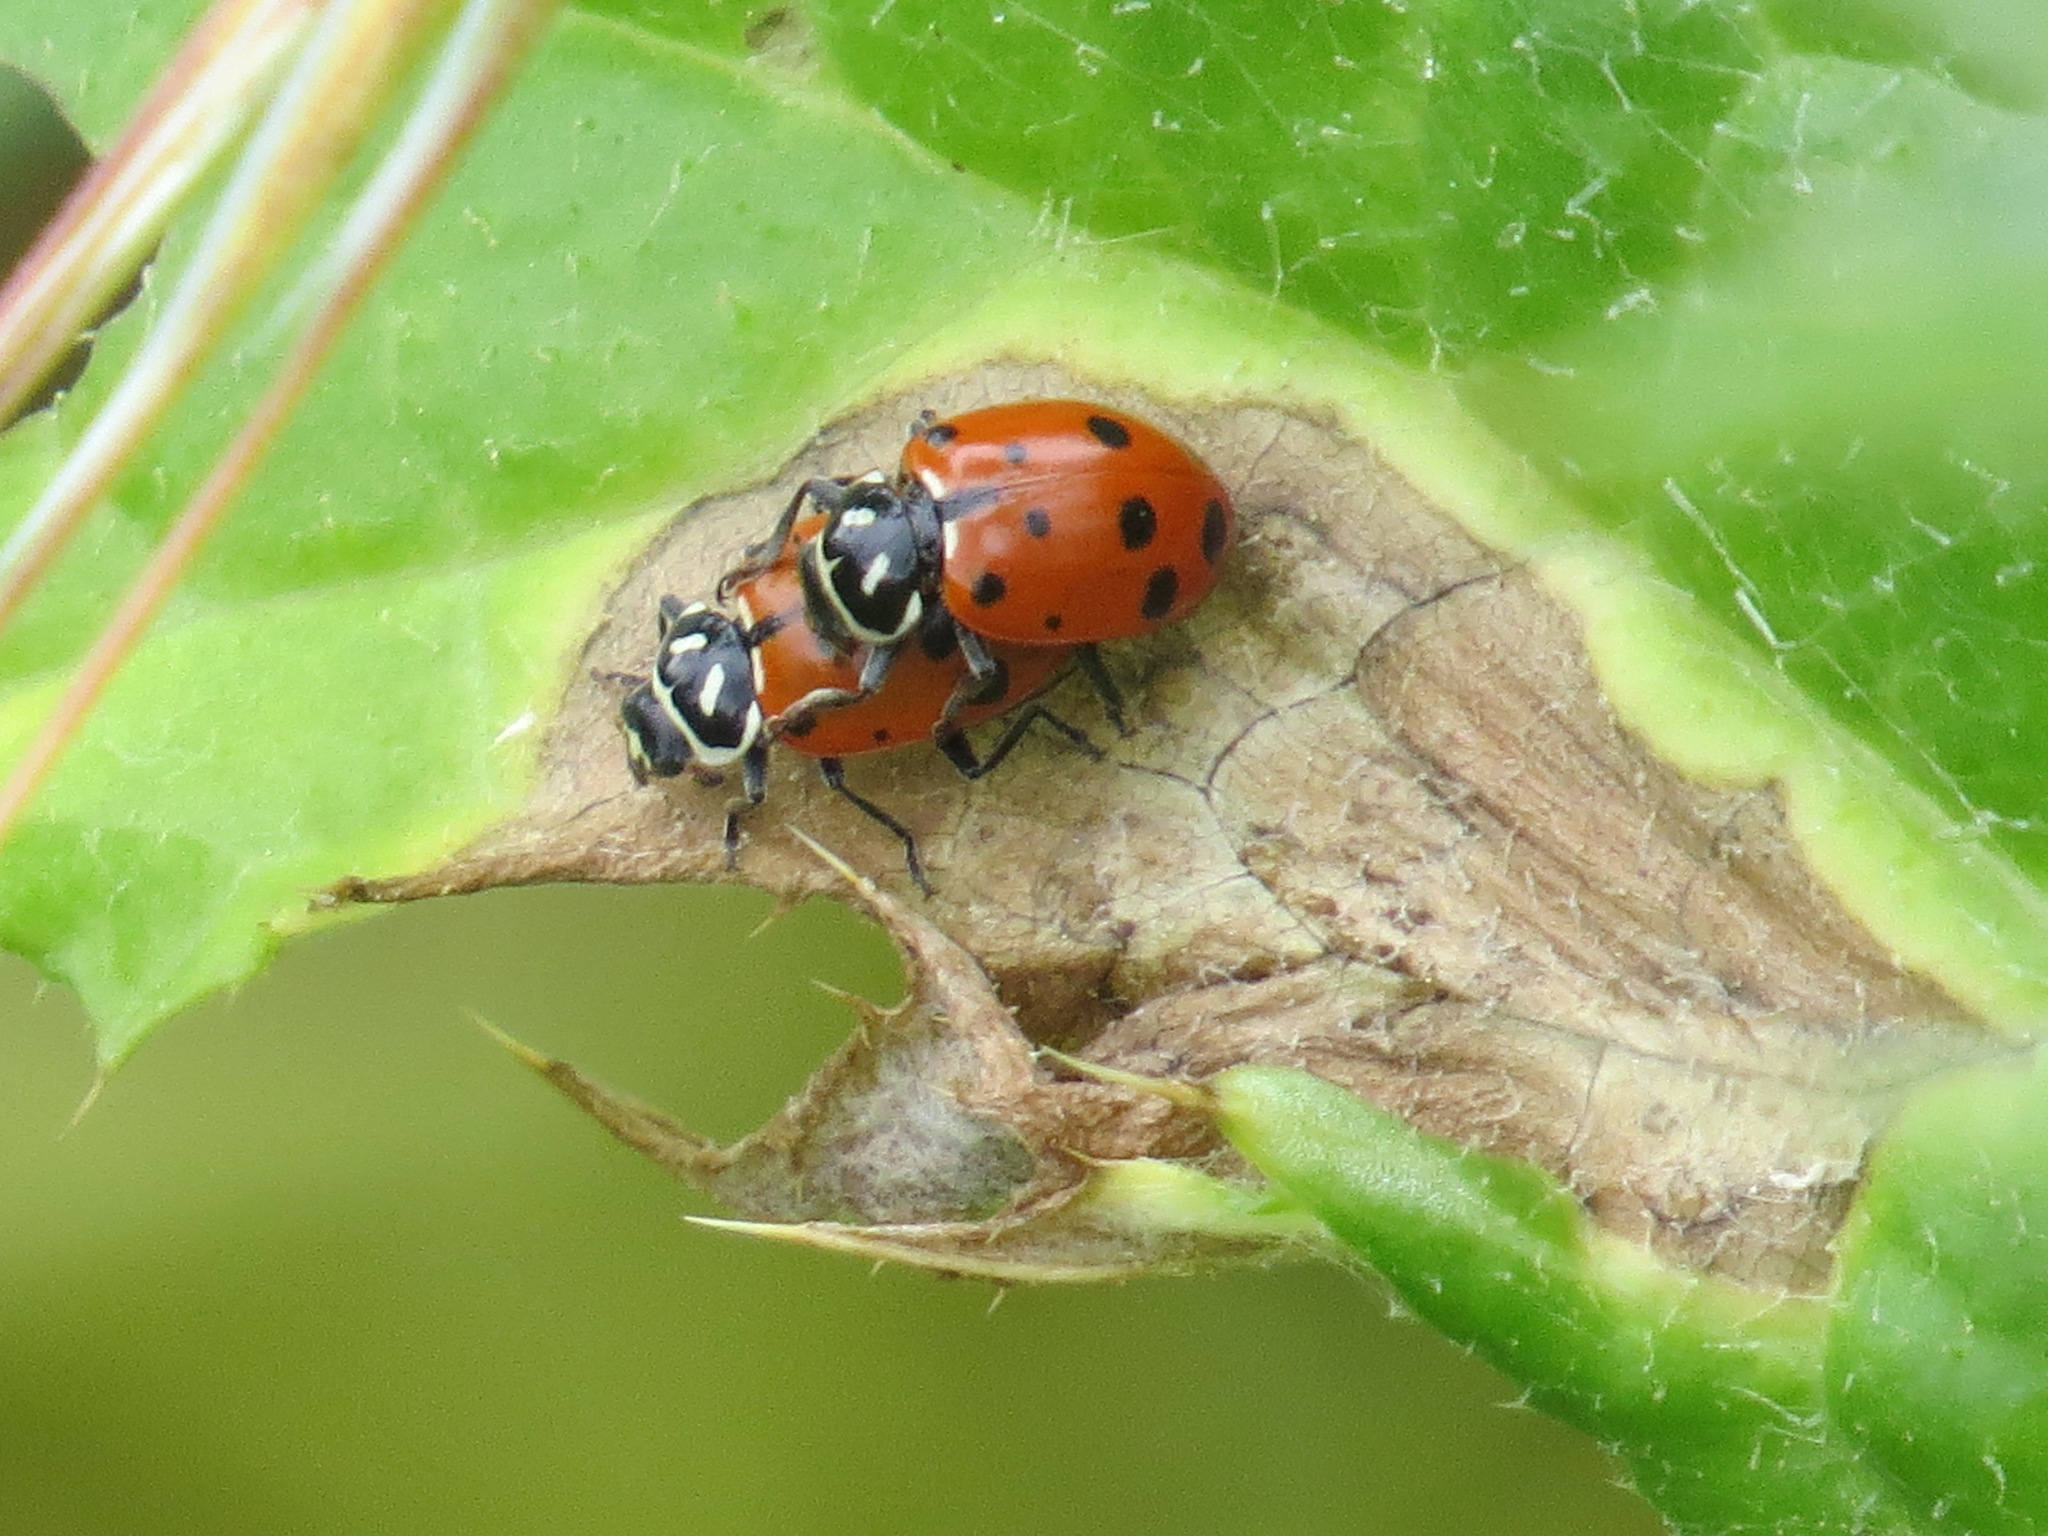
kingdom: Animalia
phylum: Arthropoda
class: Insecta
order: Coleoptera
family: Coccinellidae
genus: Hippodamia
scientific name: Hippodamia convergens
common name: Convergent lady beetle
